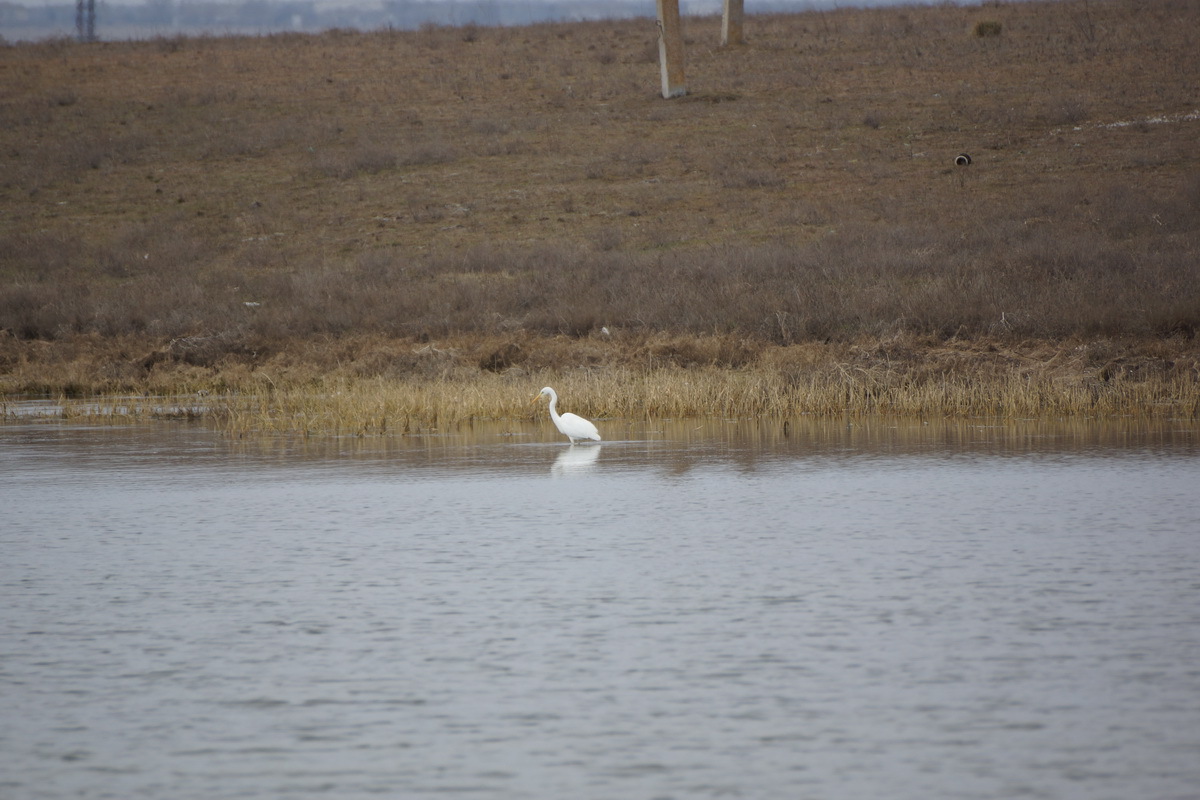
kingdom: Animalia
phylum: Chordata
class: Aves
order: Pelecaniformes
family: Ardeidae
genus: Ardea
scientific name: Ardea alba
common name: Great egret
